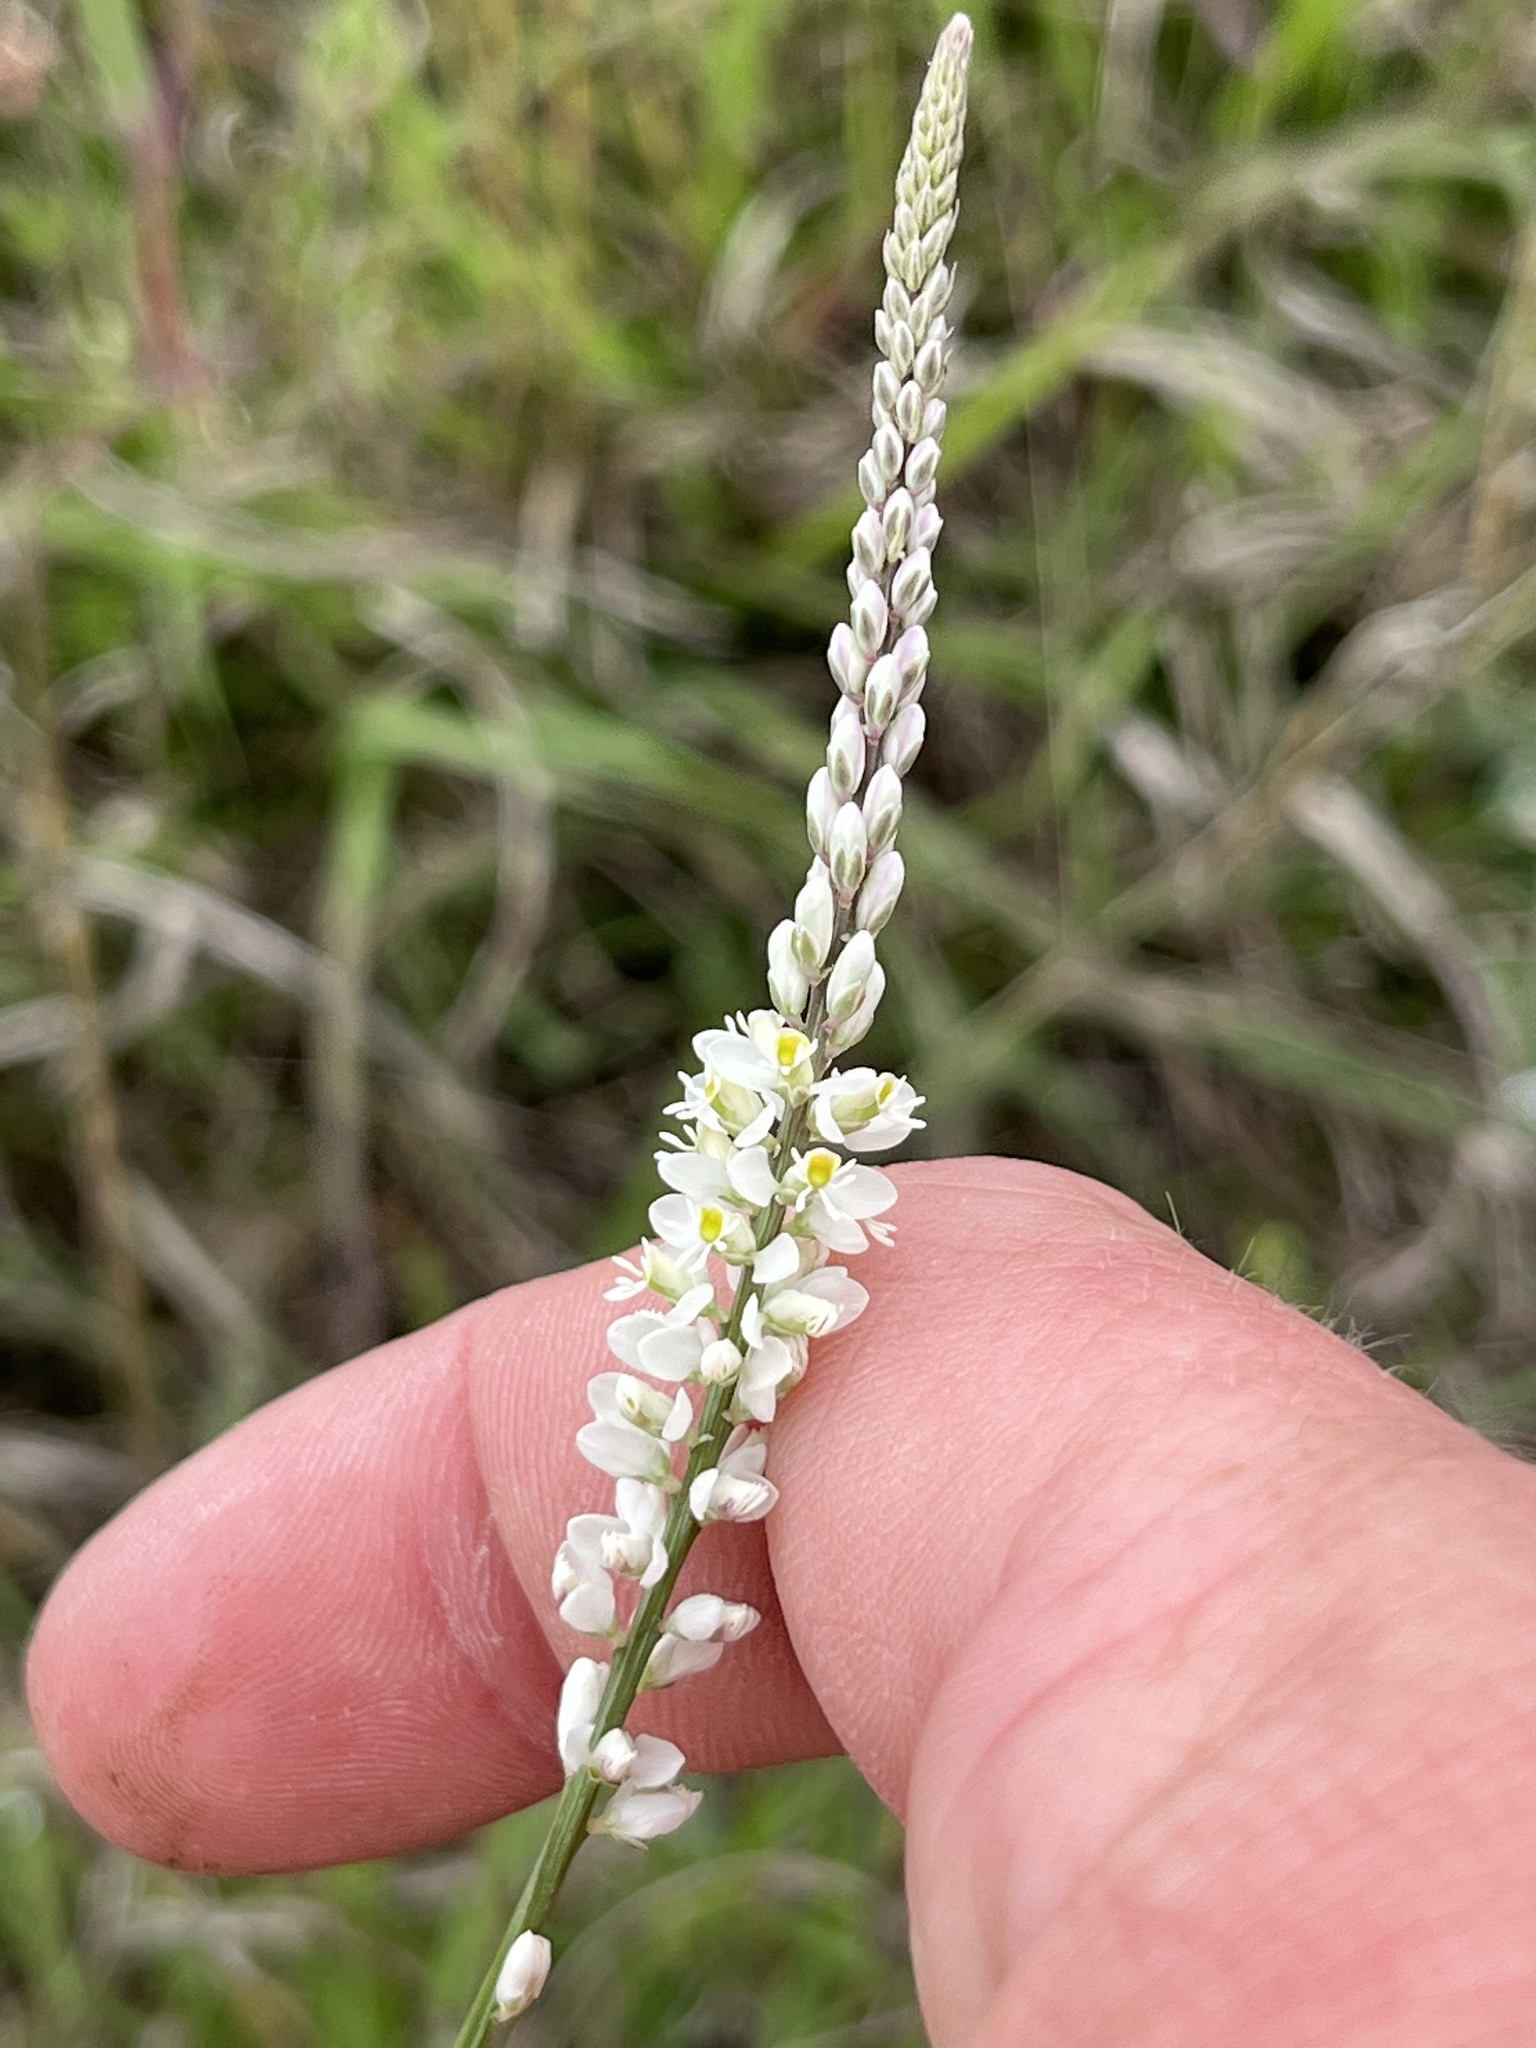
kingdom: Plantae
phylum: Tracheophyta
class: Magnoliopsida
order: Fabales
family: Polygalaceae
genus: Polygala
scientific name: Polygala alba
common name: White milkwort
